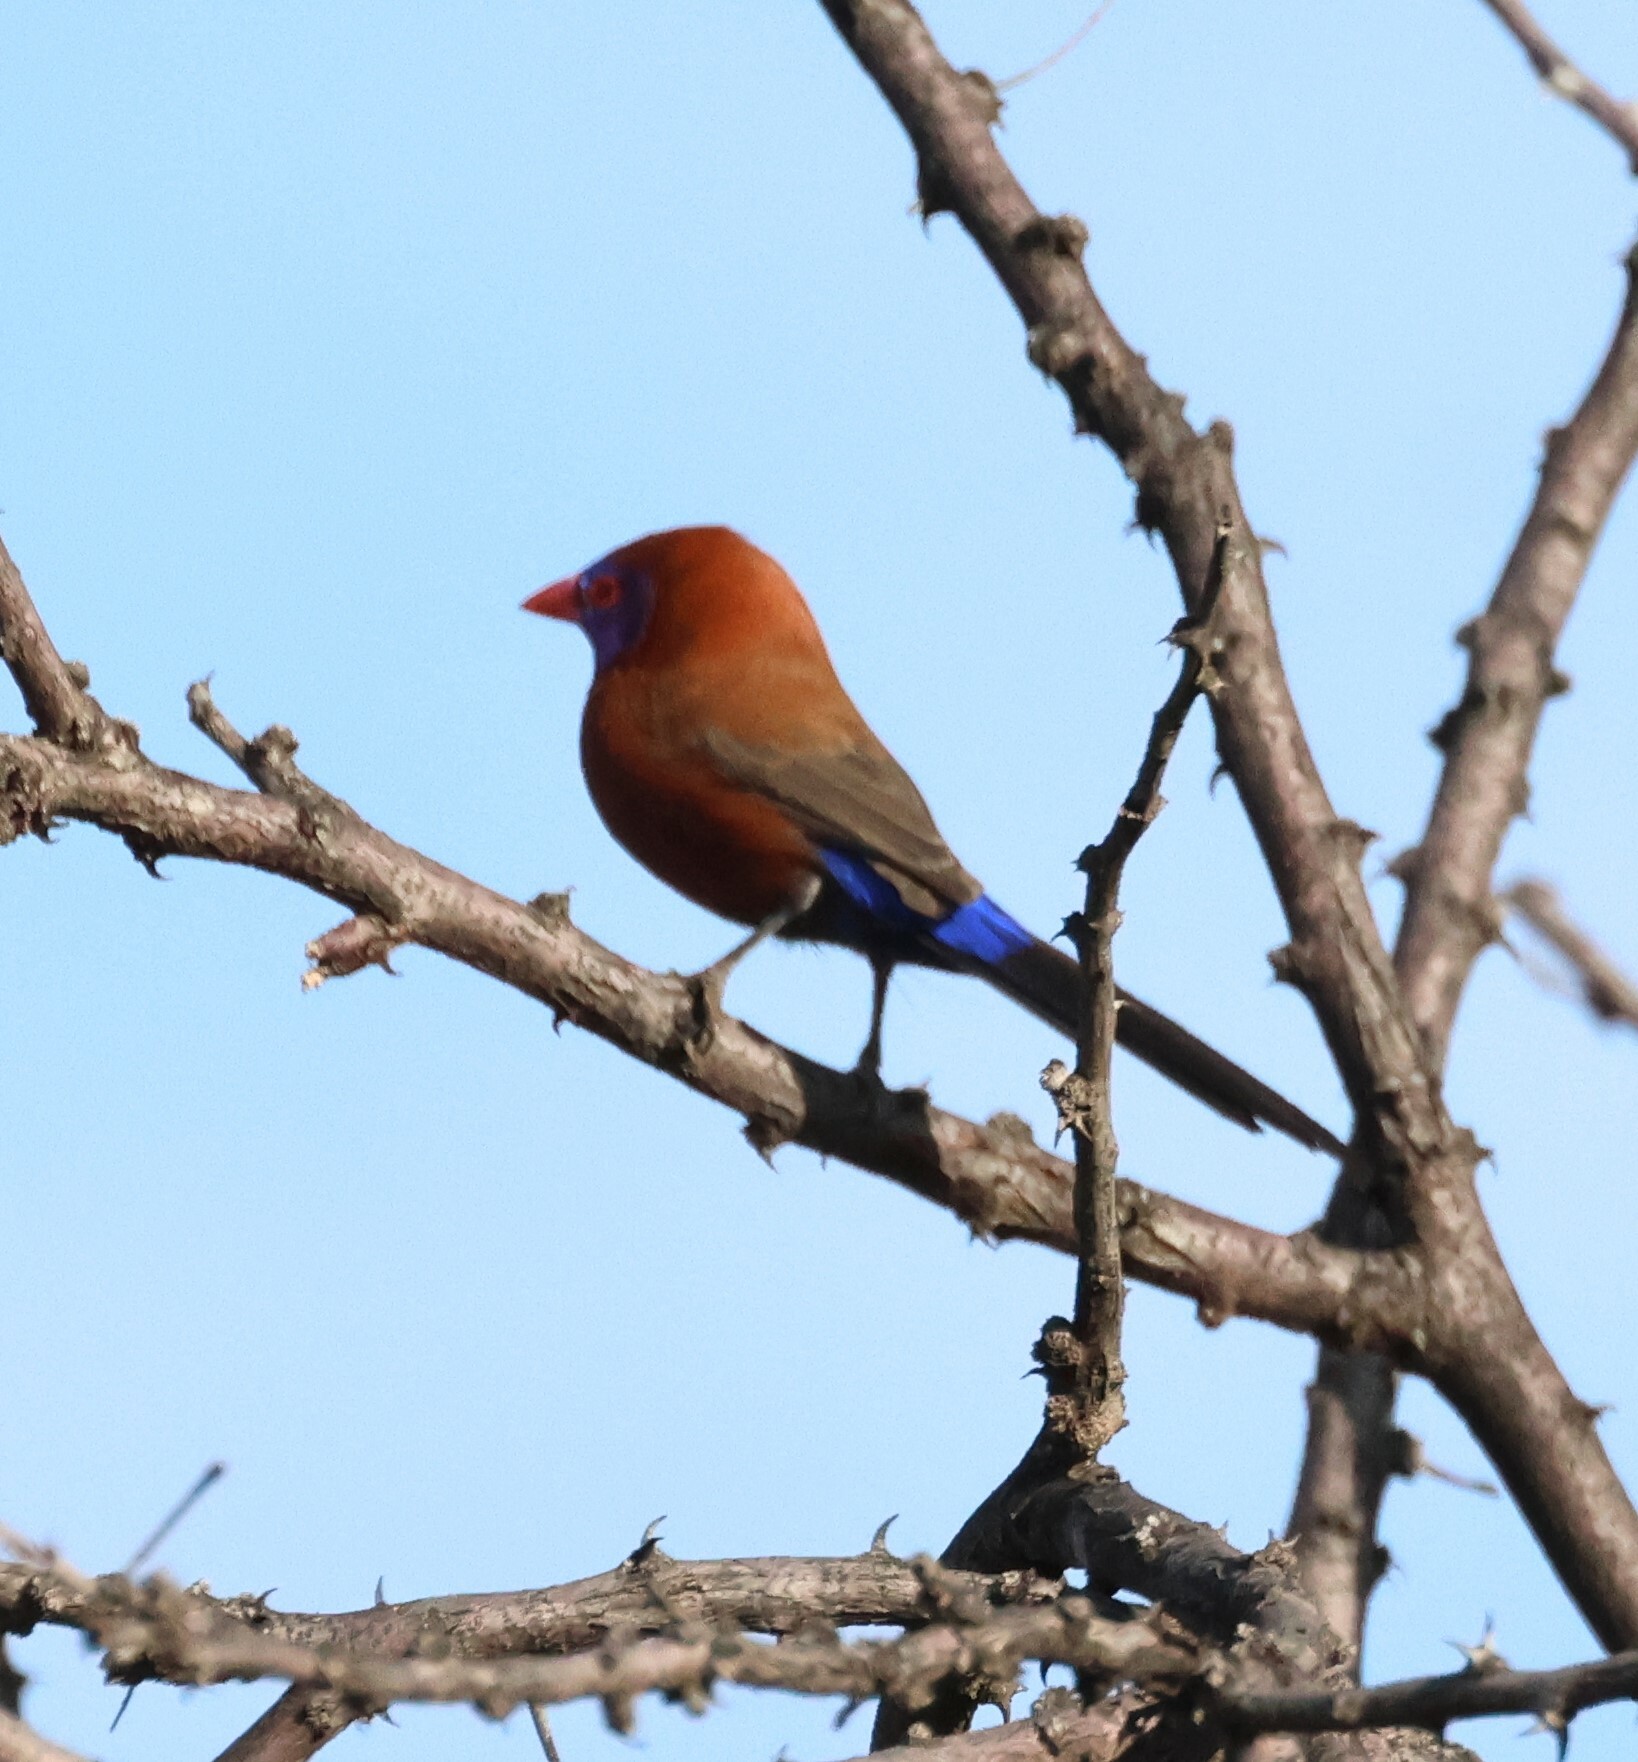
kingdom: Animalia
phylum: Chordata
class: Aves
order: Passeriformes
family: Estrildidae
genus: Uraeginthus
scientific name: Uraeginthus granatinus
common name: Violet-eared waxbill
